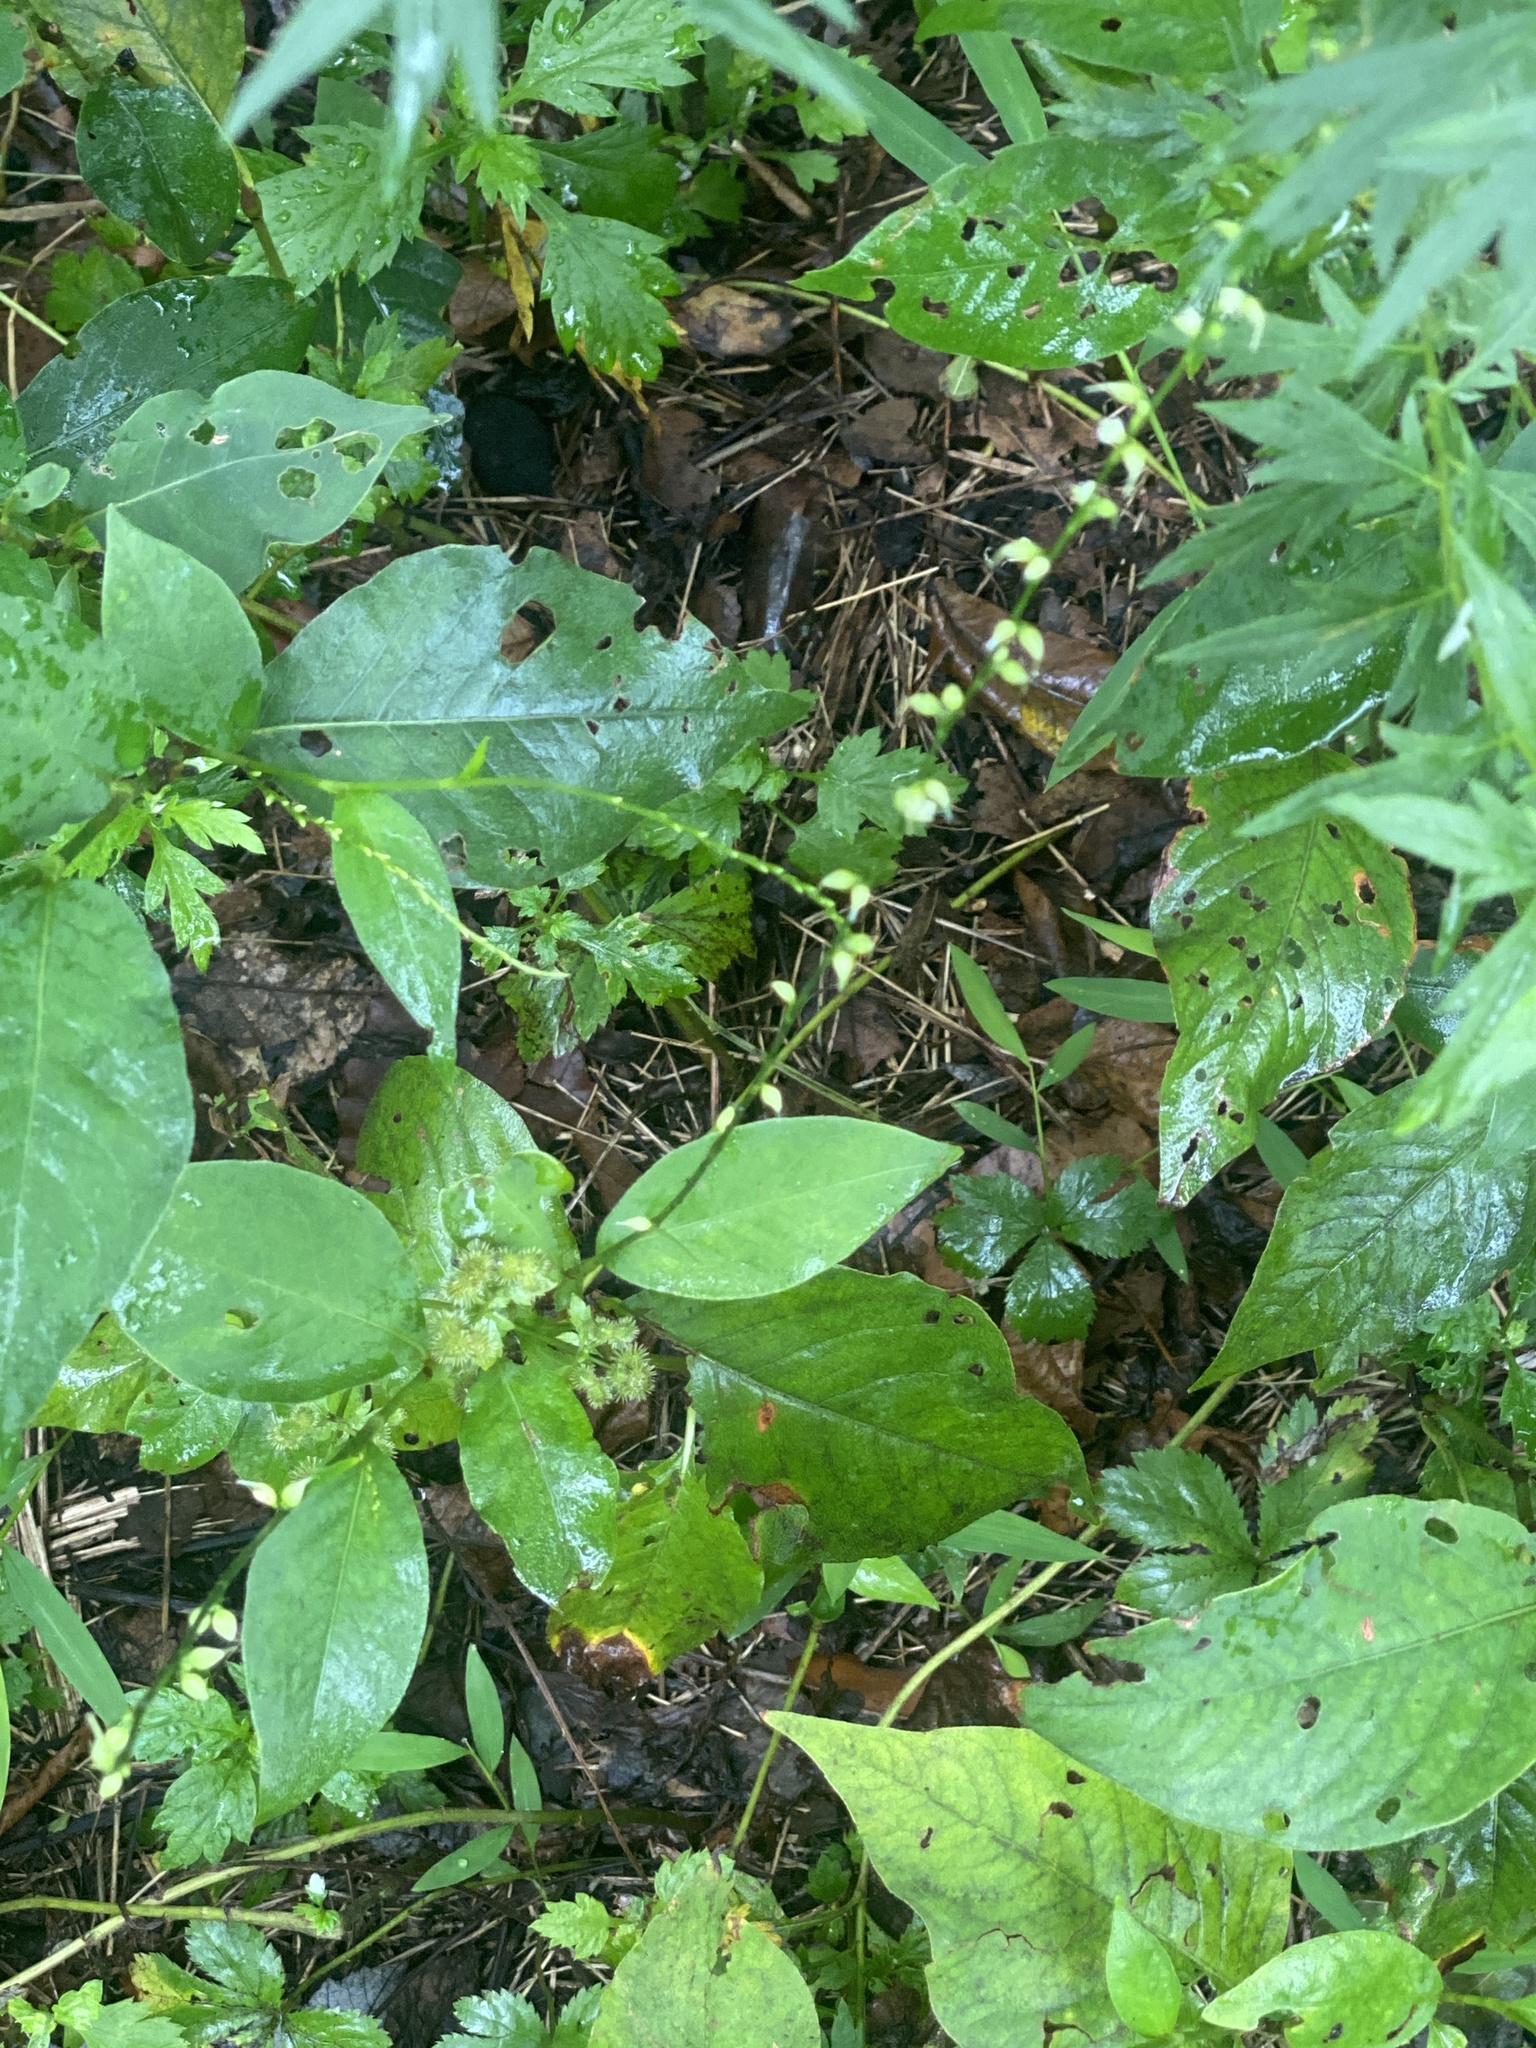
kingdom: Plantae
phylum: Tracheophyta
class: Magnoliopsida
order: Caryophyllales
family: Polygonaceae
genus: Persicaria
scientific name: Persicaria virginiana
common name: Jumpseed
